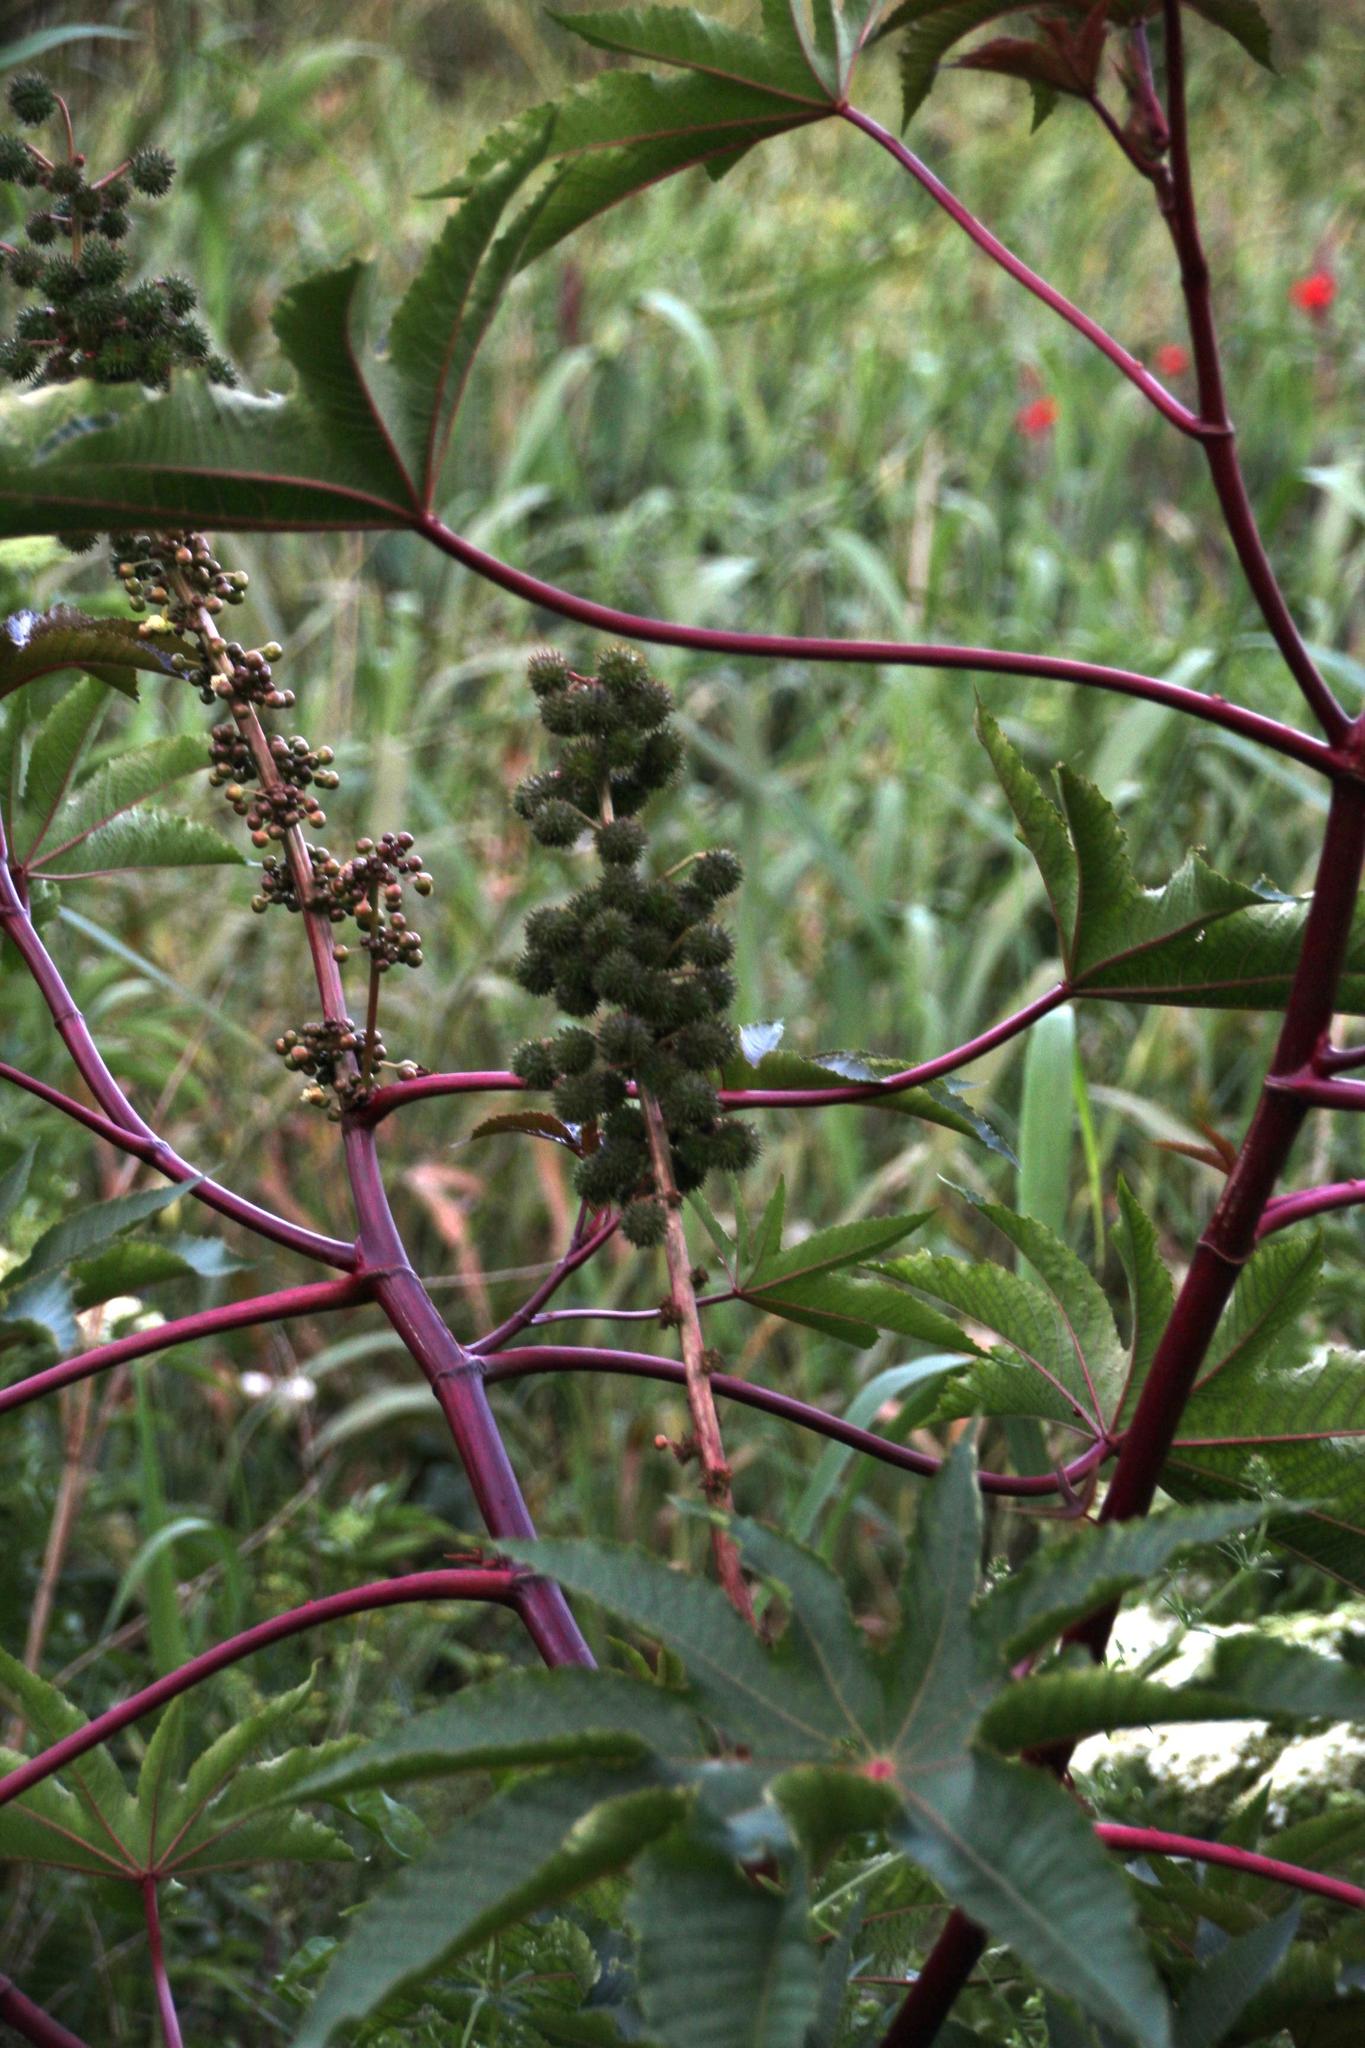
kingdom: Plantae
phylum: Tracheophyta
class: Magnoliopsida
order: Malpighiales
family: Euphorbiaceae
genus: Ricinus
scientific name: Ricinus communis
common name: Castor-oil-plant
